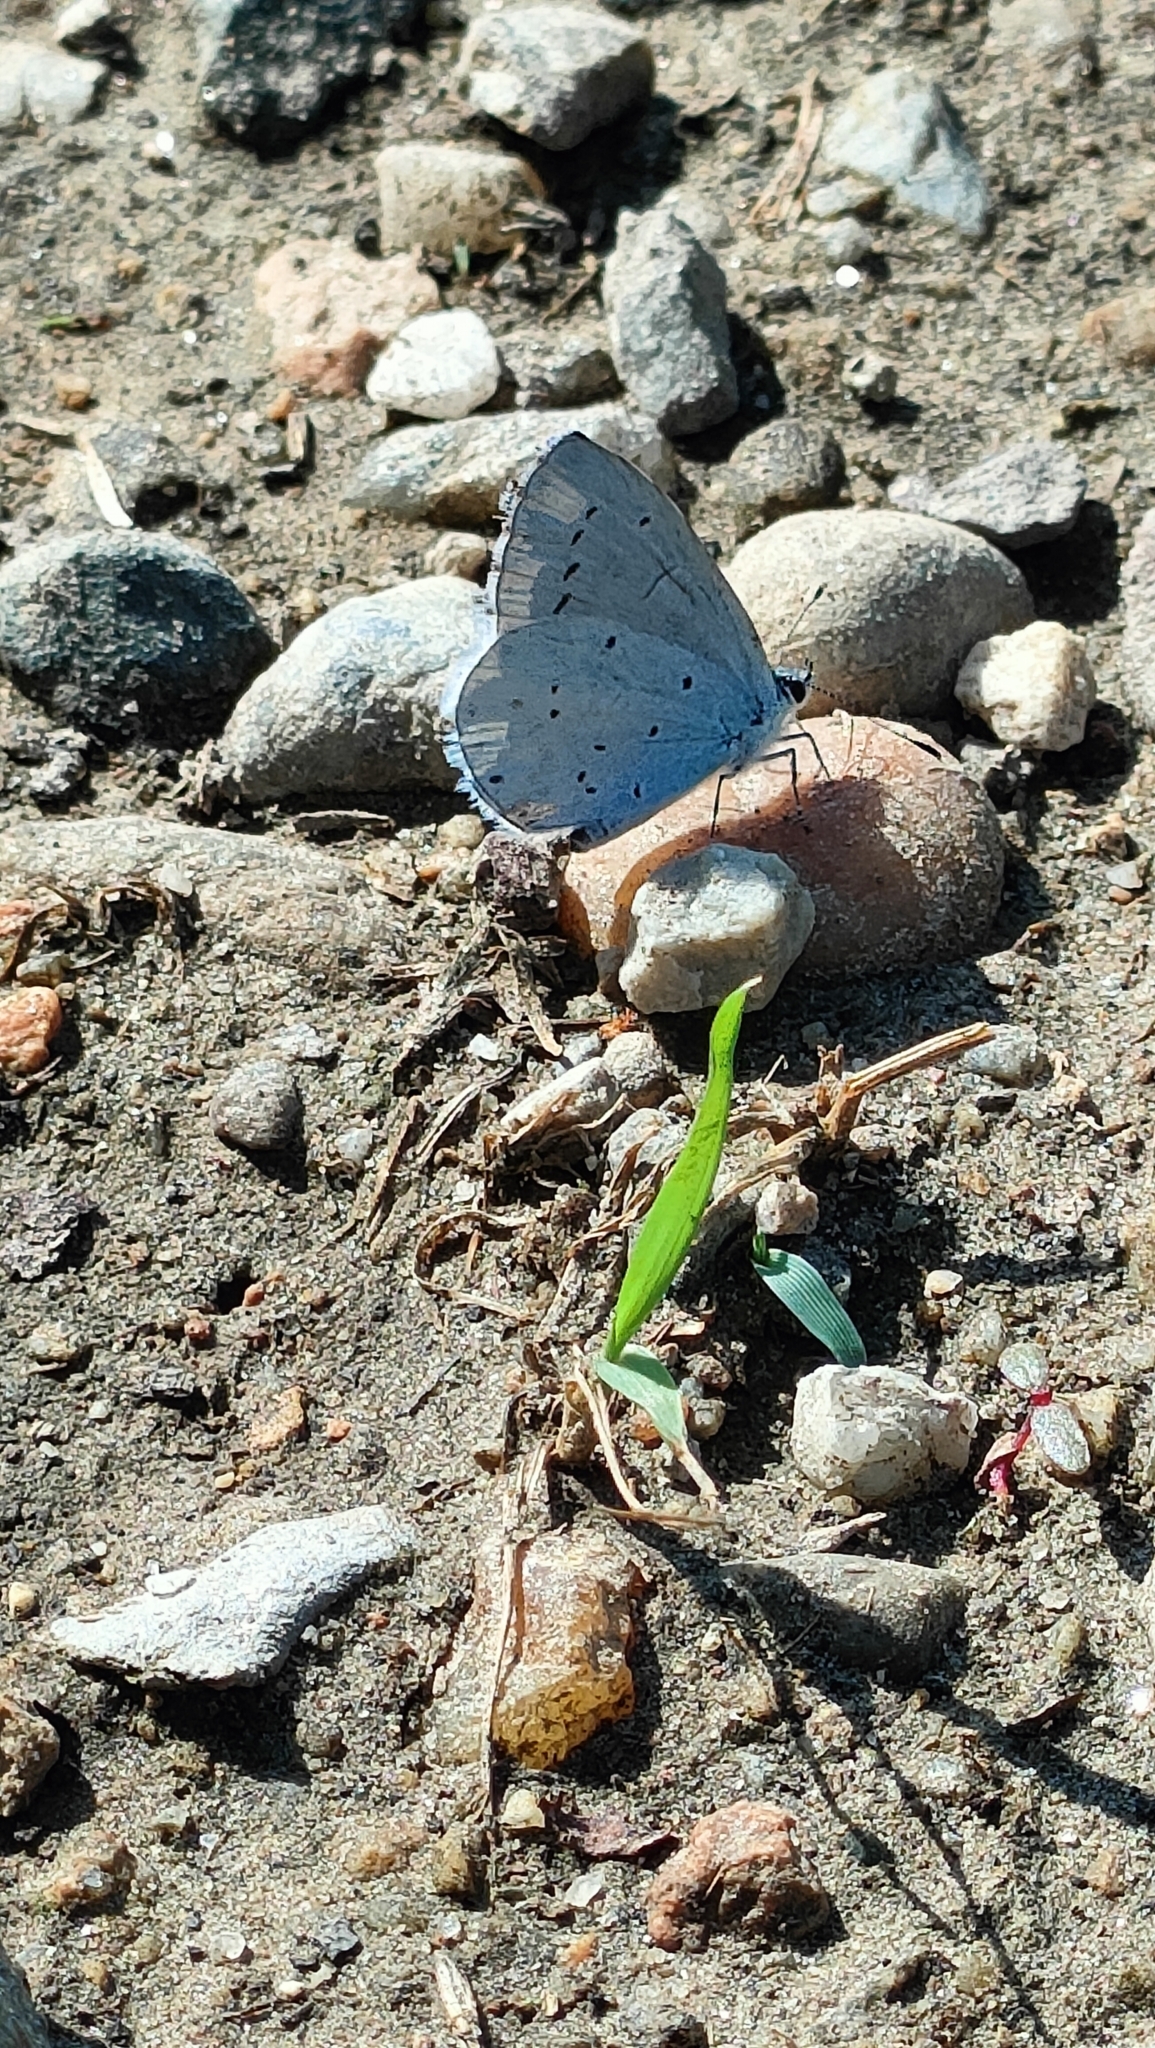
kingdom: Animalia
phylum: Arthropoda
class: Insecta
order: Lepidoptera
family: Lycaenidae
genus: Celastrina
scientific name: Celastrina argiolus
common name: Holly blue
